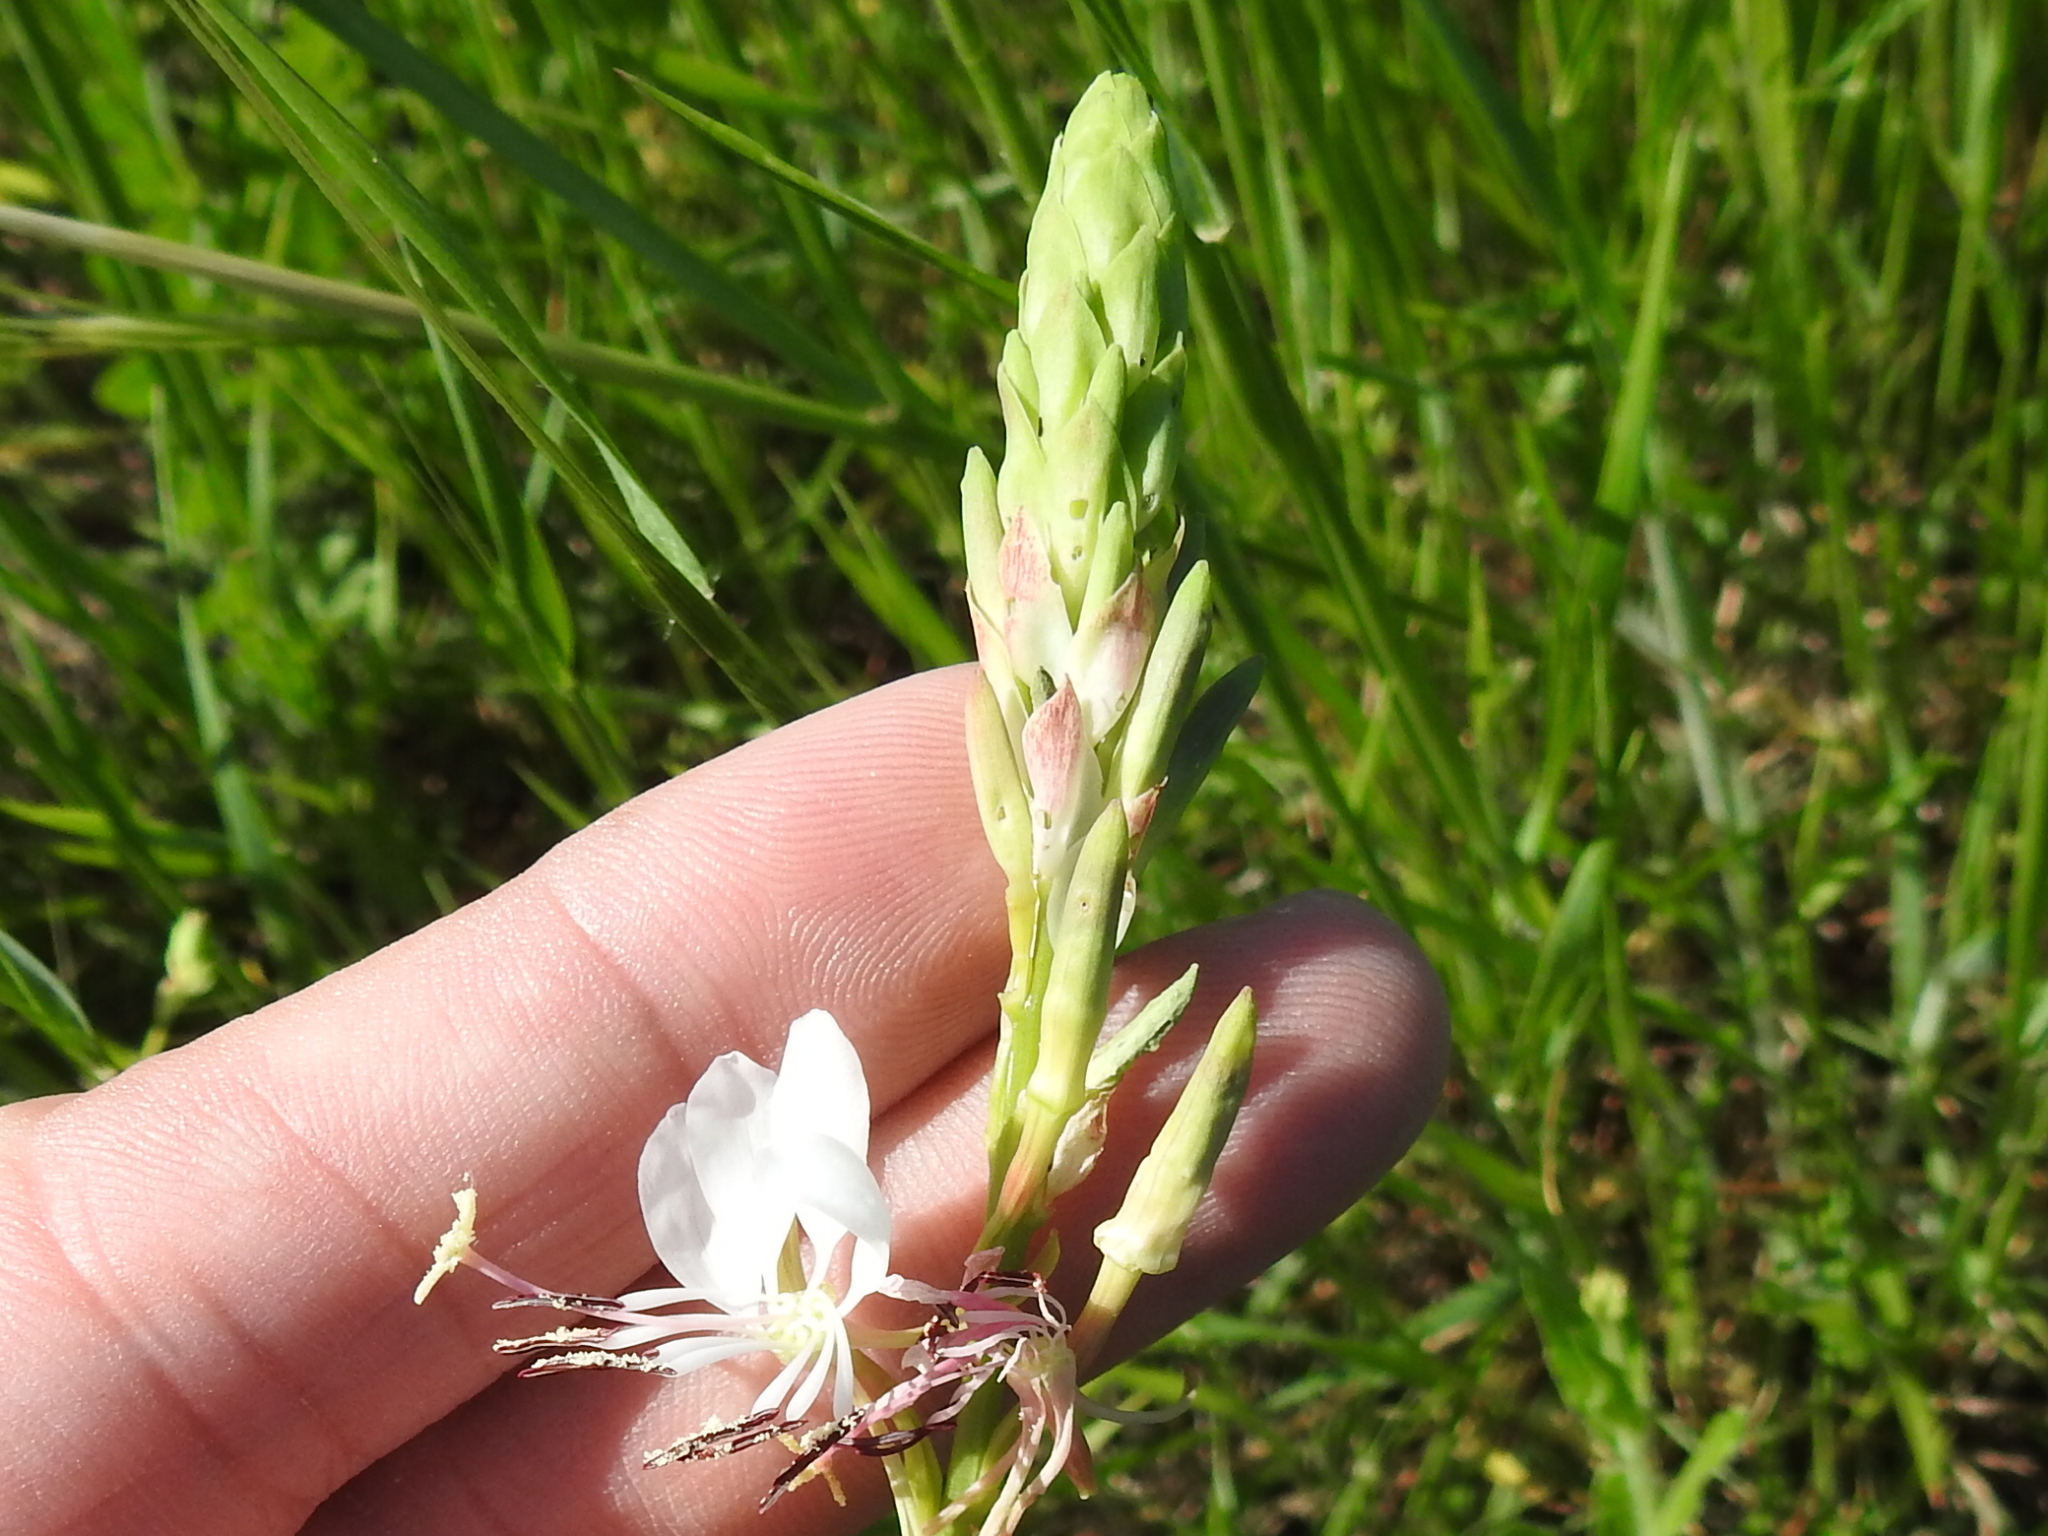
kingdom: Plantae
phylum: Tracheophyta
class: Magnoliopsida
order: Myrtales
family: Onagraceae
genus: Oenothera
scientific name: Oenothera suffulta
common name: Kisses
